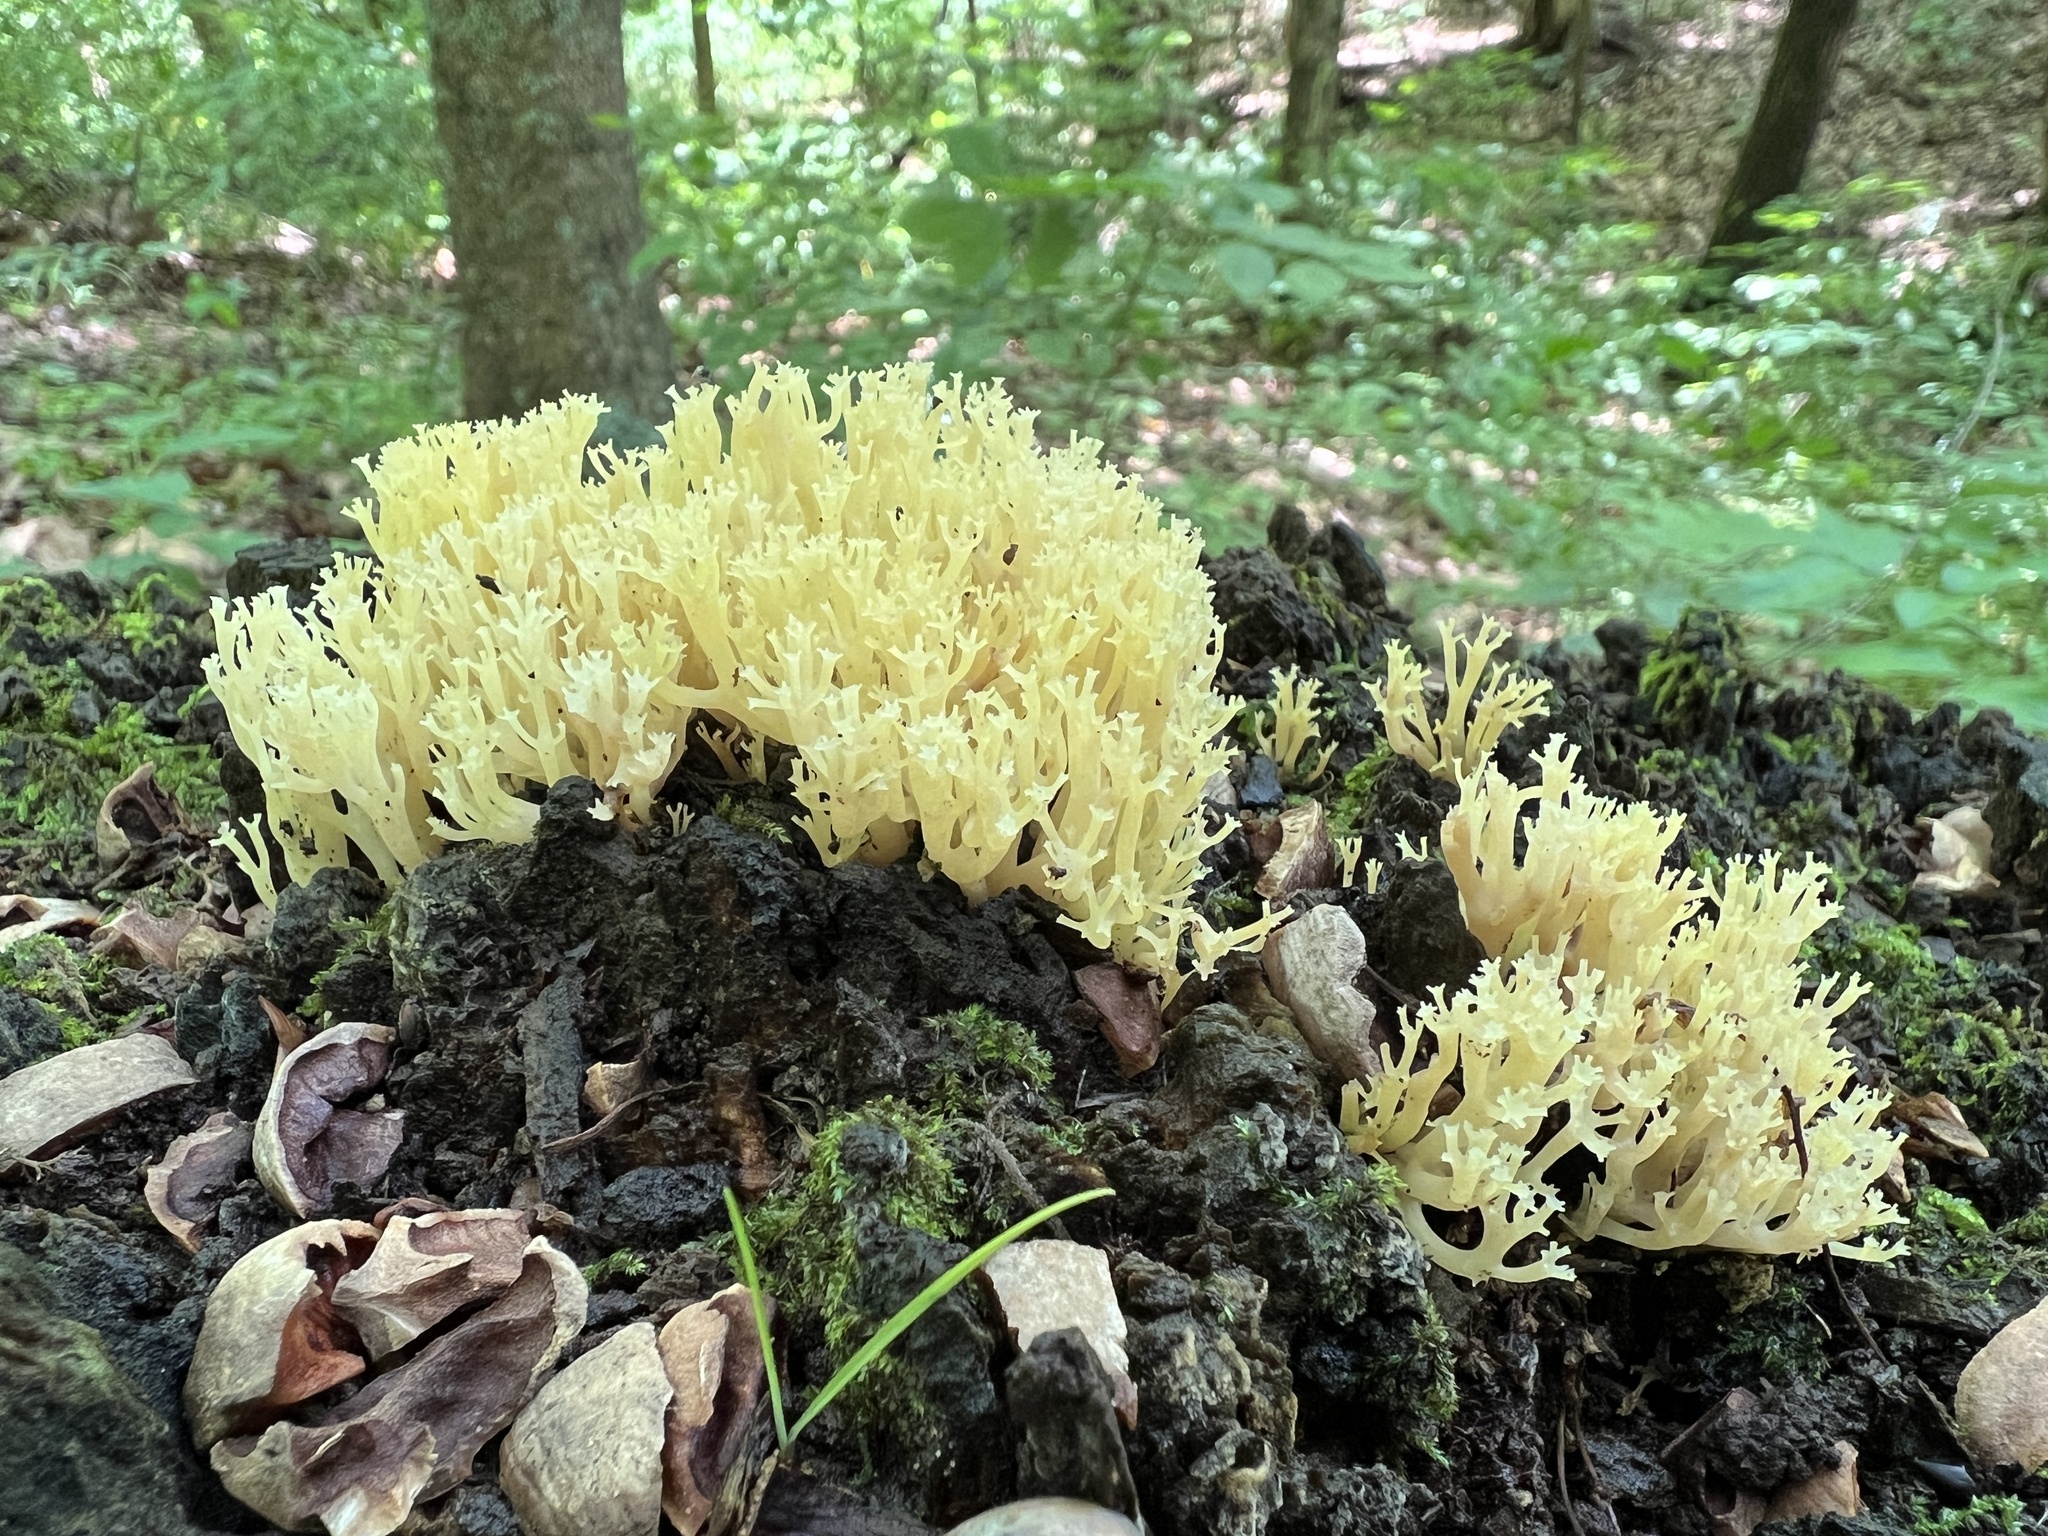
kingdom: Fungi
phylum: Basidiomycota
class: Agaricomycetes
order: Russulales
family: Auriscalpiaceae
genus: Artomyces
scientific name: Artomyces pyxidatus
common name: Crown-tipped coral fungus
